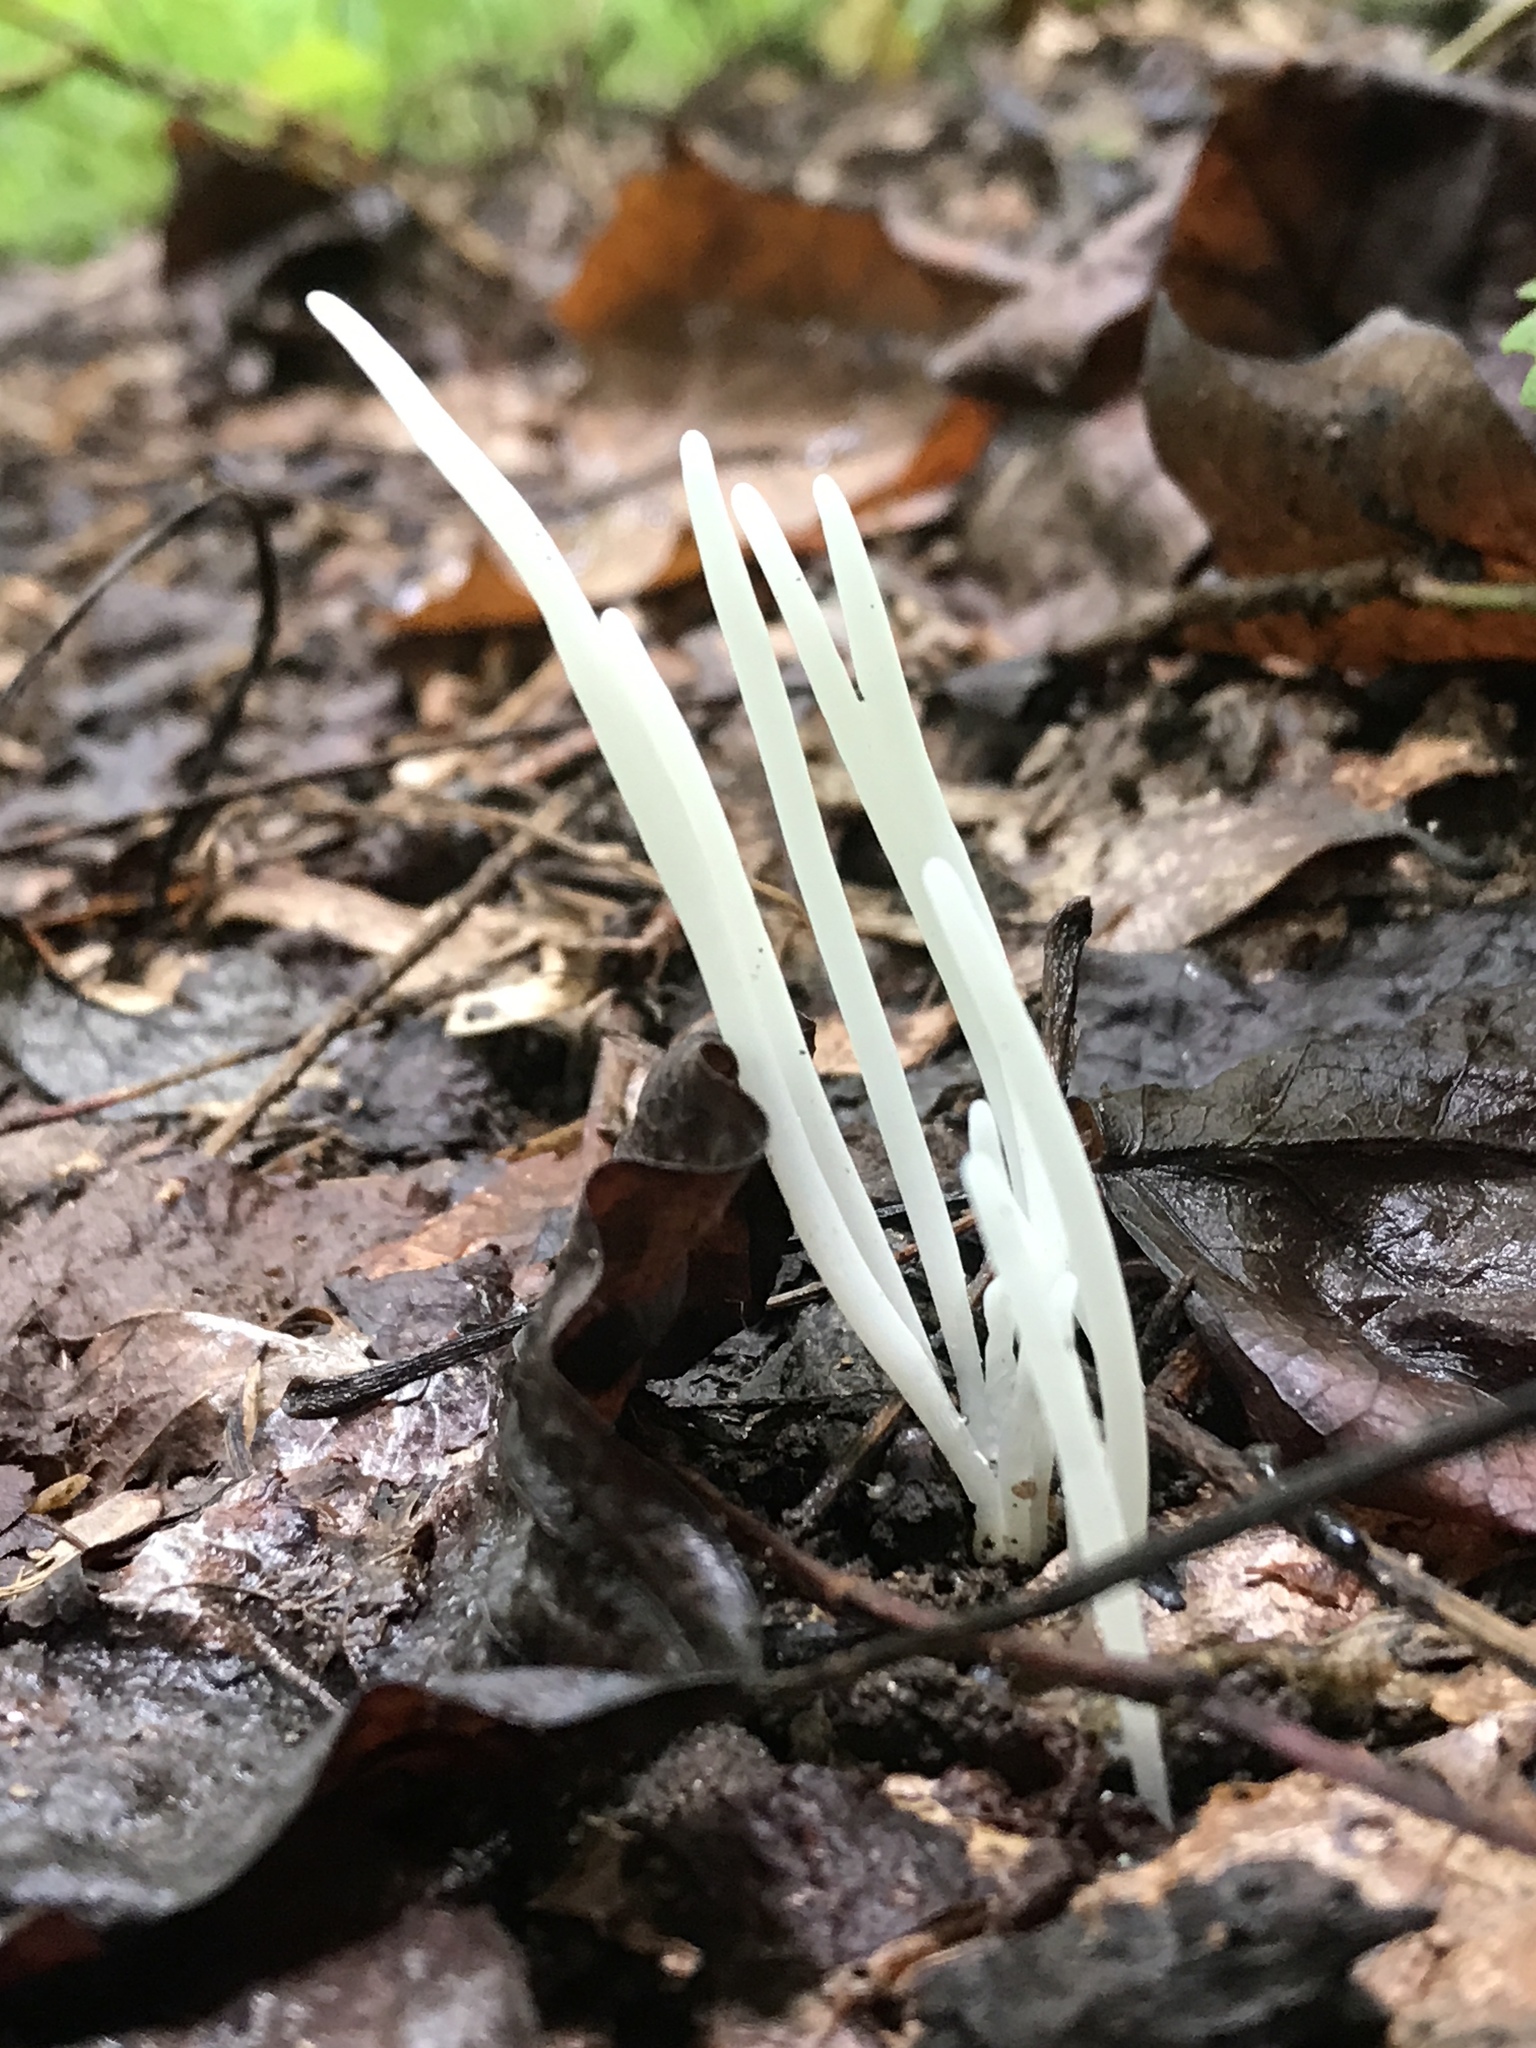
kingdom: Fungi
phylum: Basidiomycota
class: Agaricomycetes
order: Agaricales
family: Clavariaceae
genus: Clavaria
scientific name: Clavaria fragilis
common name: White spindles
